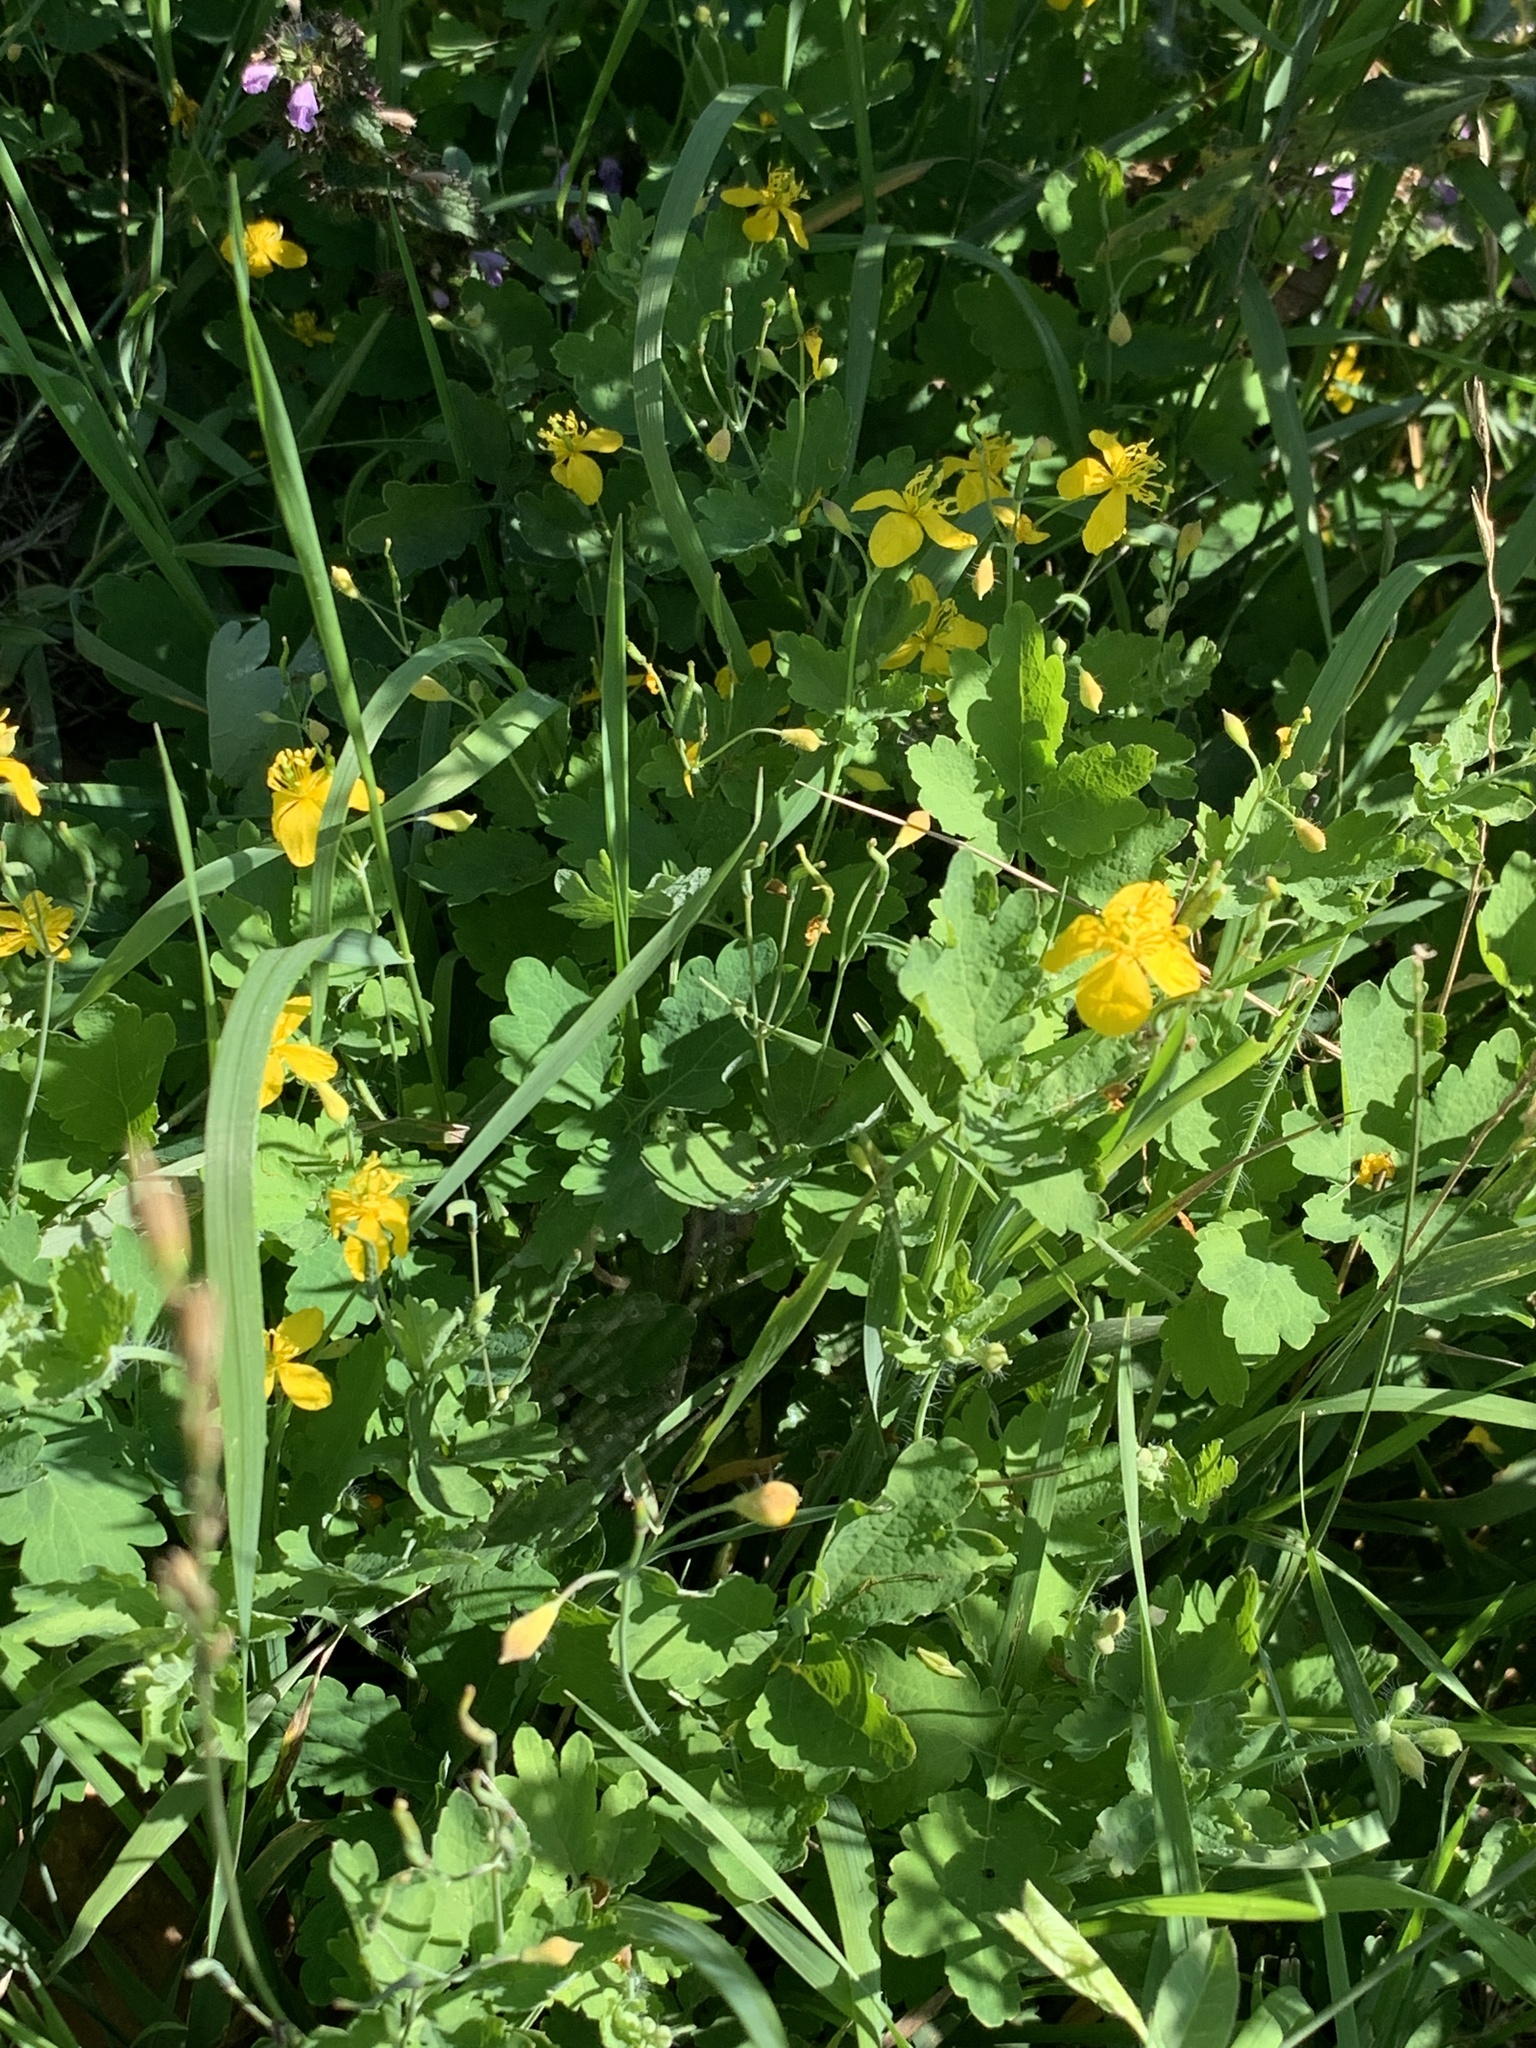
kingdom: Plantae
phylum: Tracheophyta
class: Magnoliopsida
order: Ranunculales
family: Papaveraceae
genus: Chelidonium
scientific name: Chelidonium majus
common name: Greater celandine
